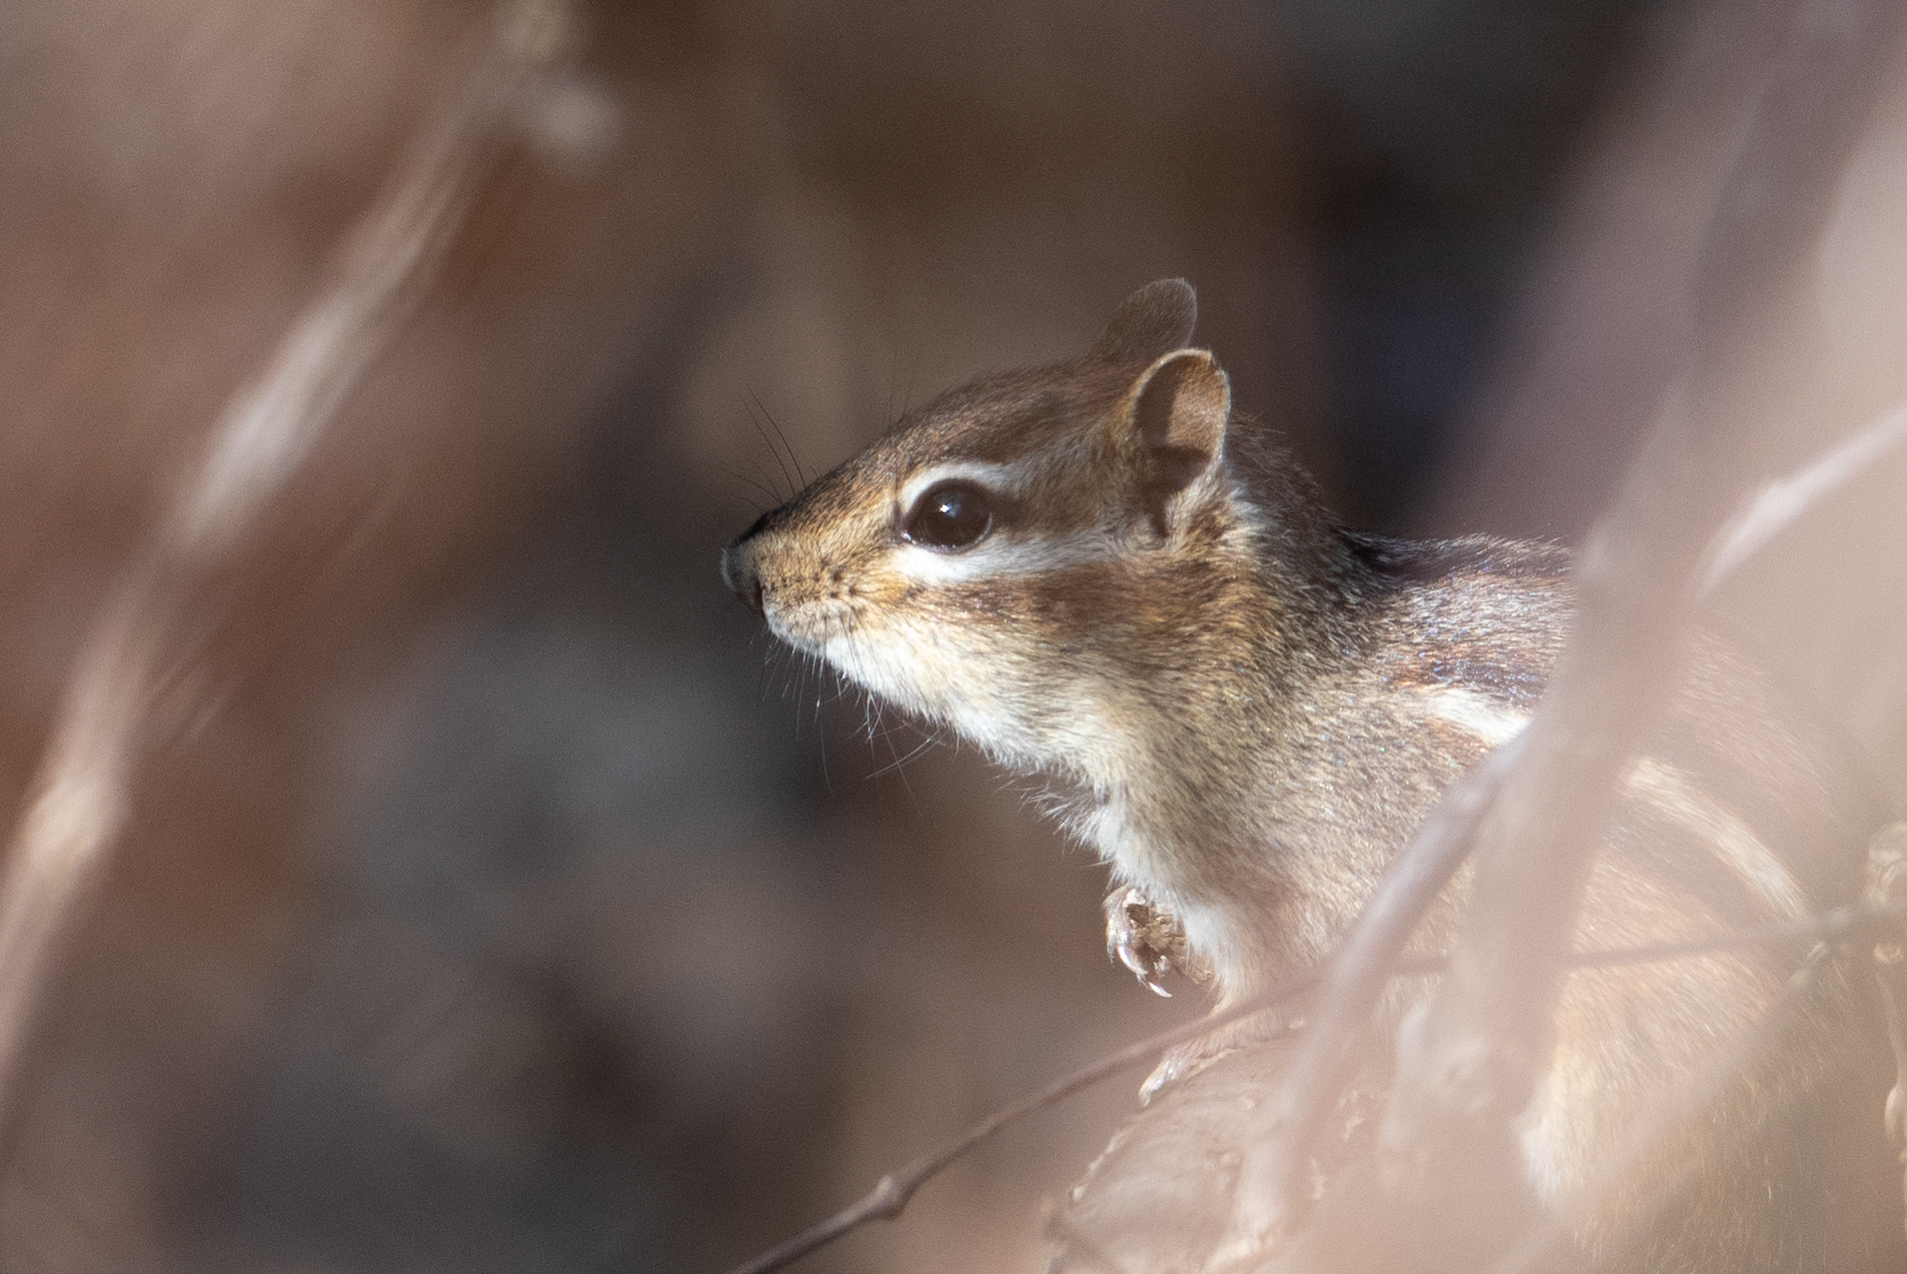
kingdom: Animalia
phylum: Chordata
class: Mammalia
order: Rodentia
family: Sciuridae
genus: Tamias
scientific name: Tamias striatus
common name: Eastern chipmunk
